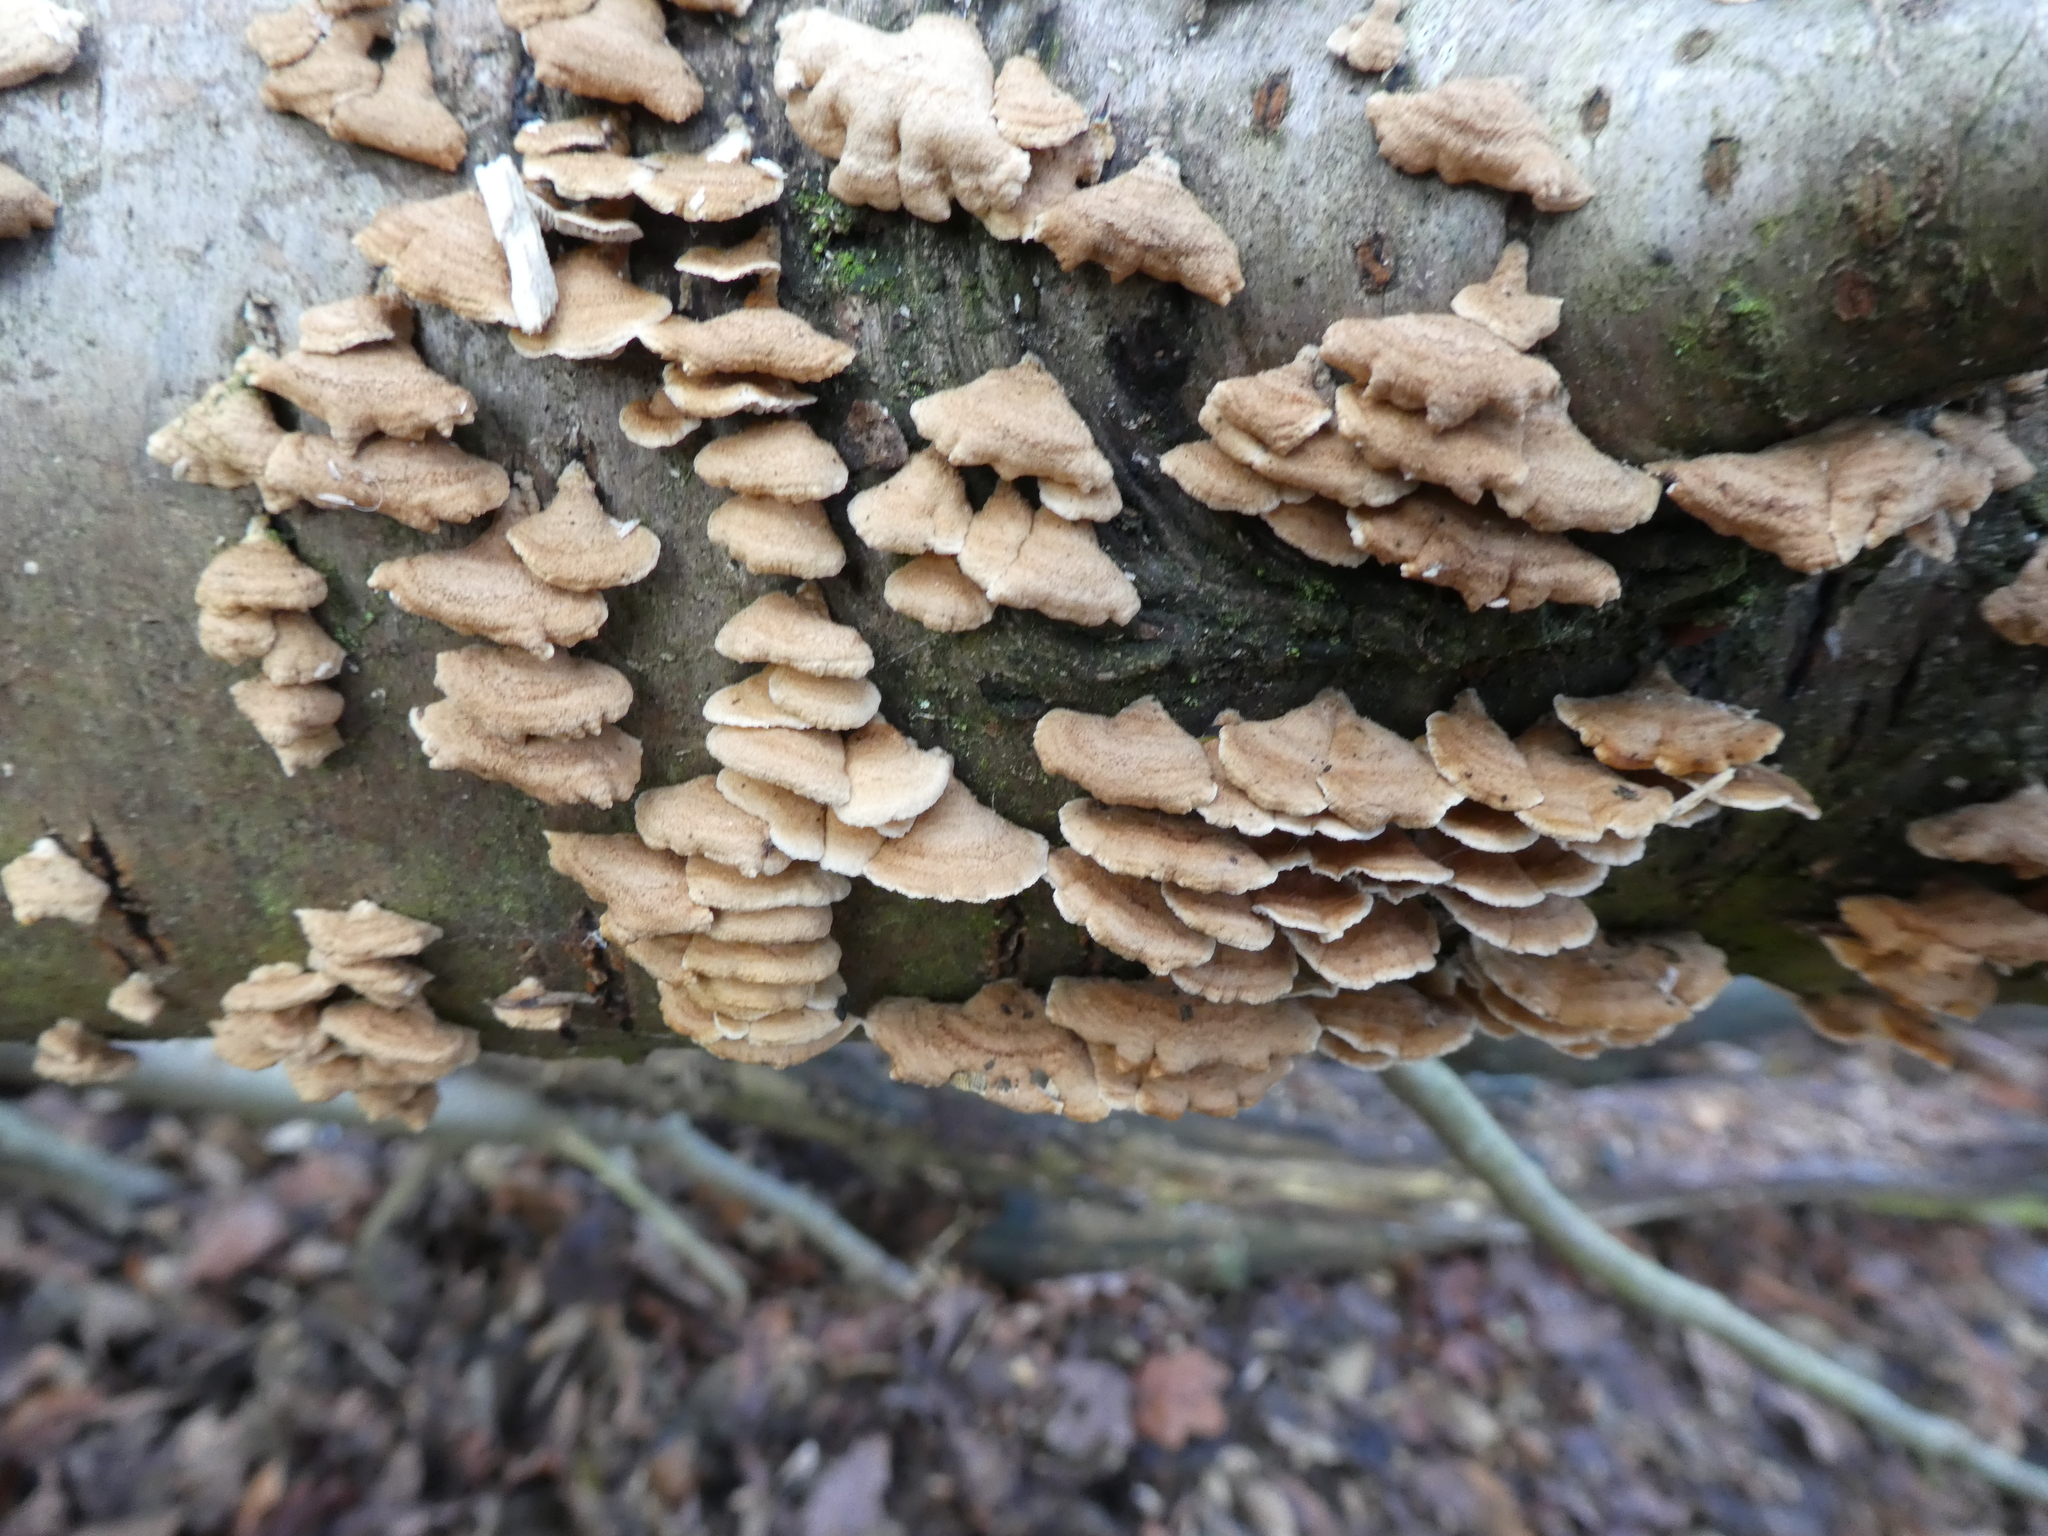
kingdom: Fungi
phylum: Basidiomycota
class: Agaricomycetes
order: Amylocorticiales
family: Amylocorticiaceae
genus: Plicaturopsis
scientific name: Plicaturopsis crispa
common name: Crimped gill
